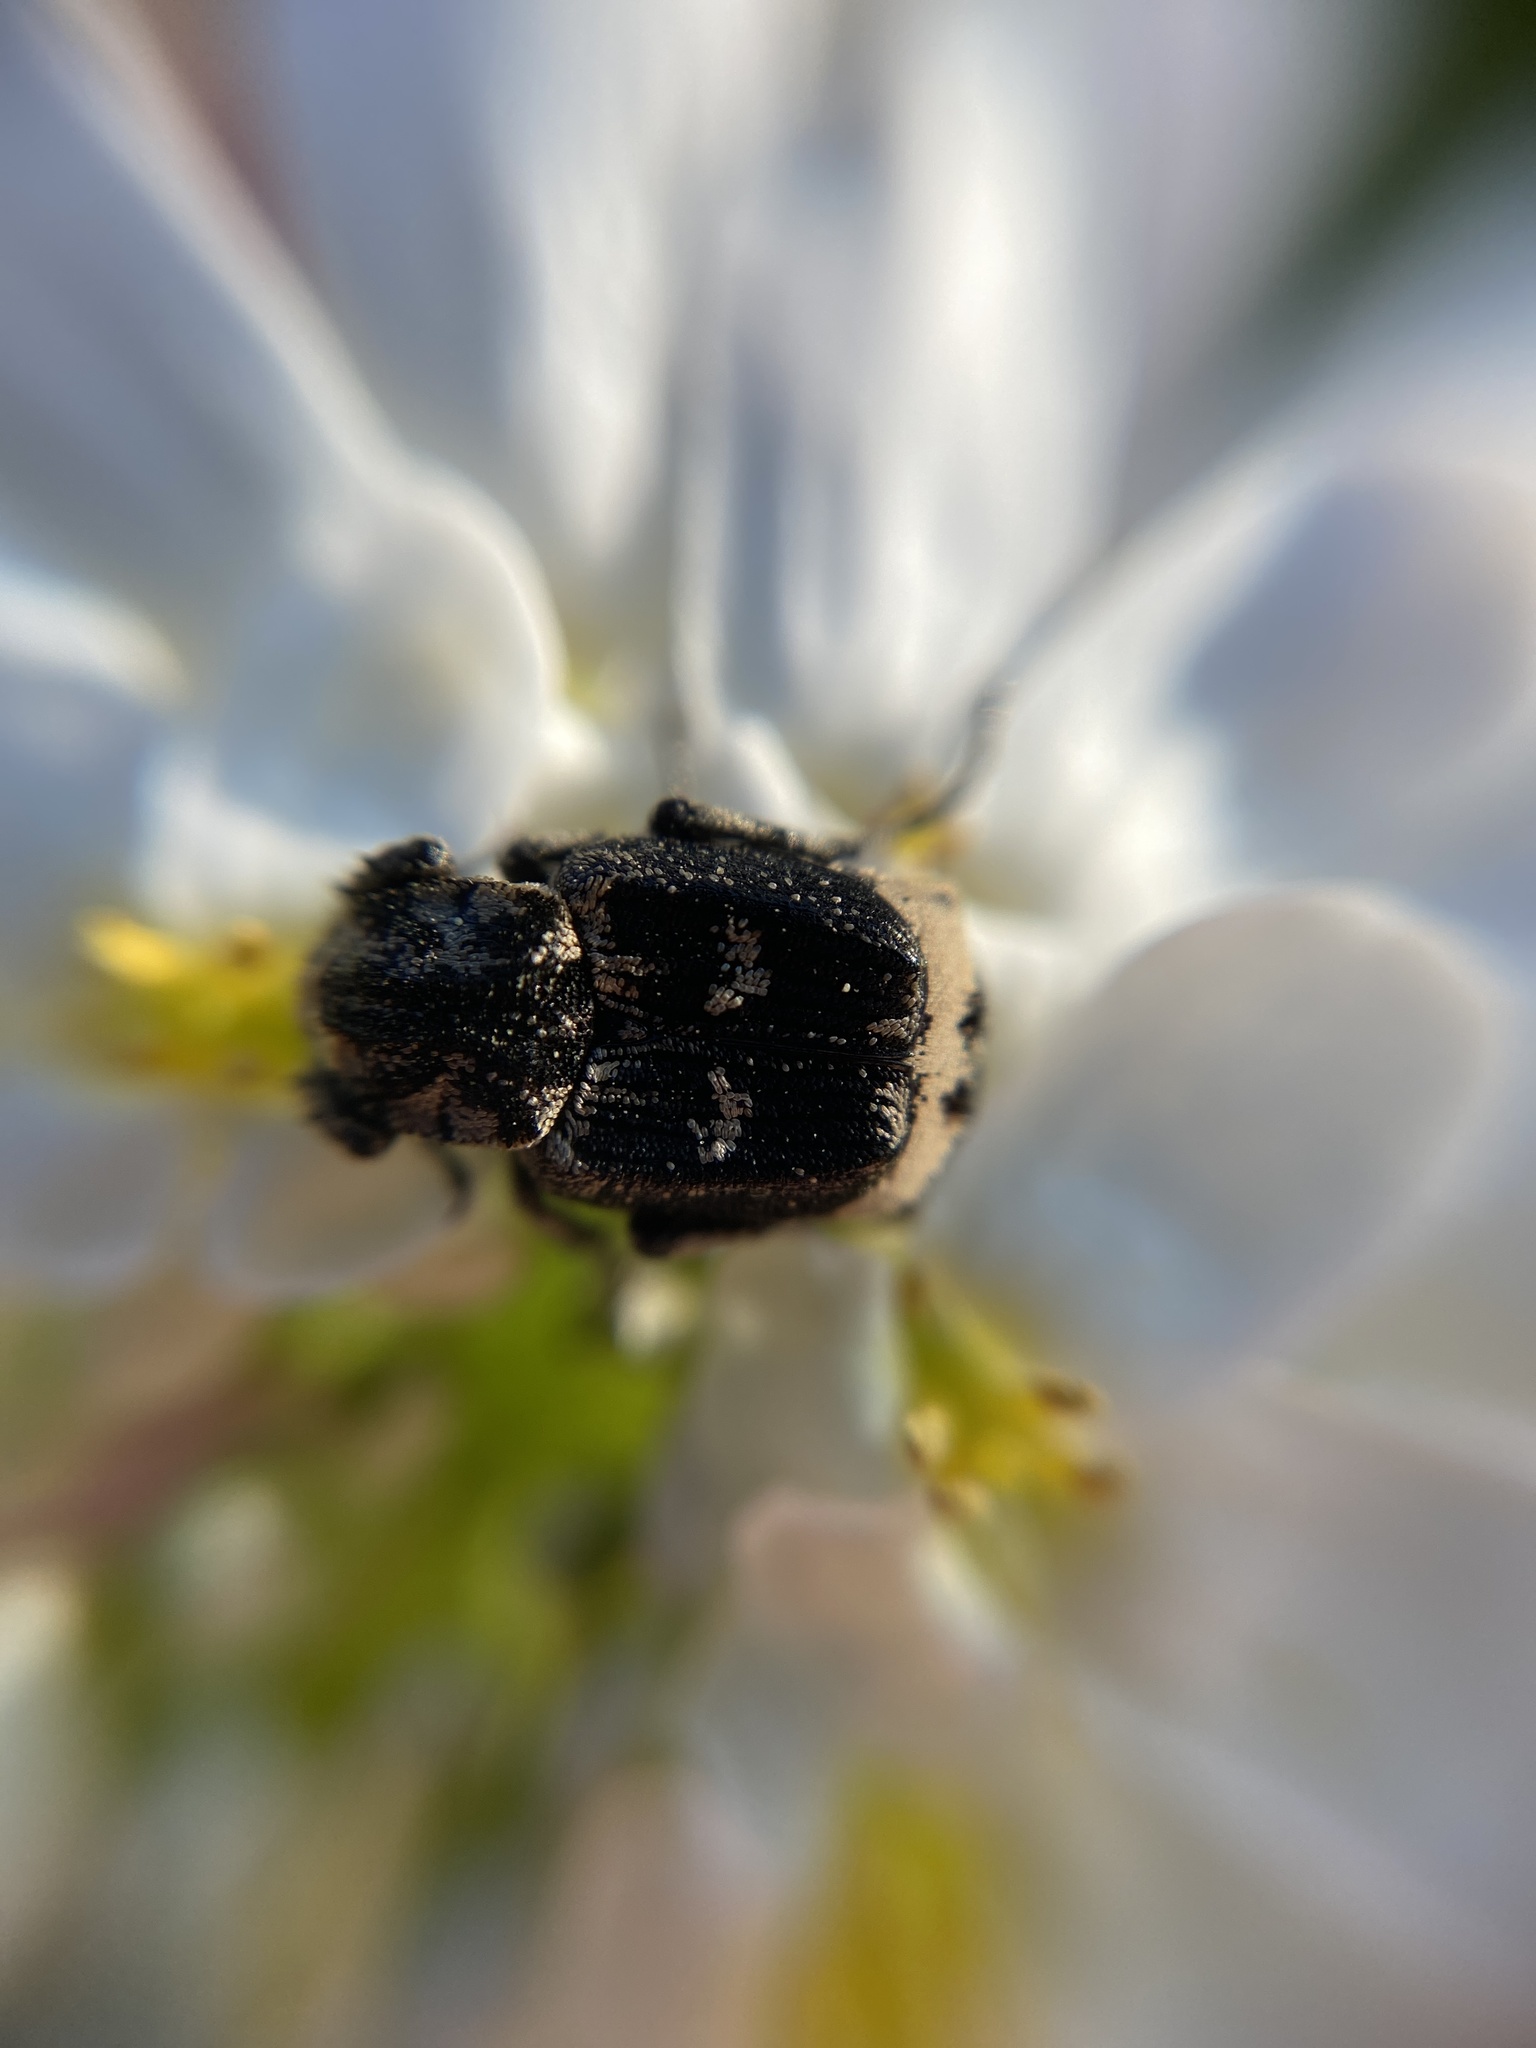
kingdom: Animalia
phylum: Arthropoda
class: Insecta
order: Coleoptera
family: Scarabaeidae
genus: Valgus
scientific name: Valgus hemipterus
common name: Bug flower chafer
